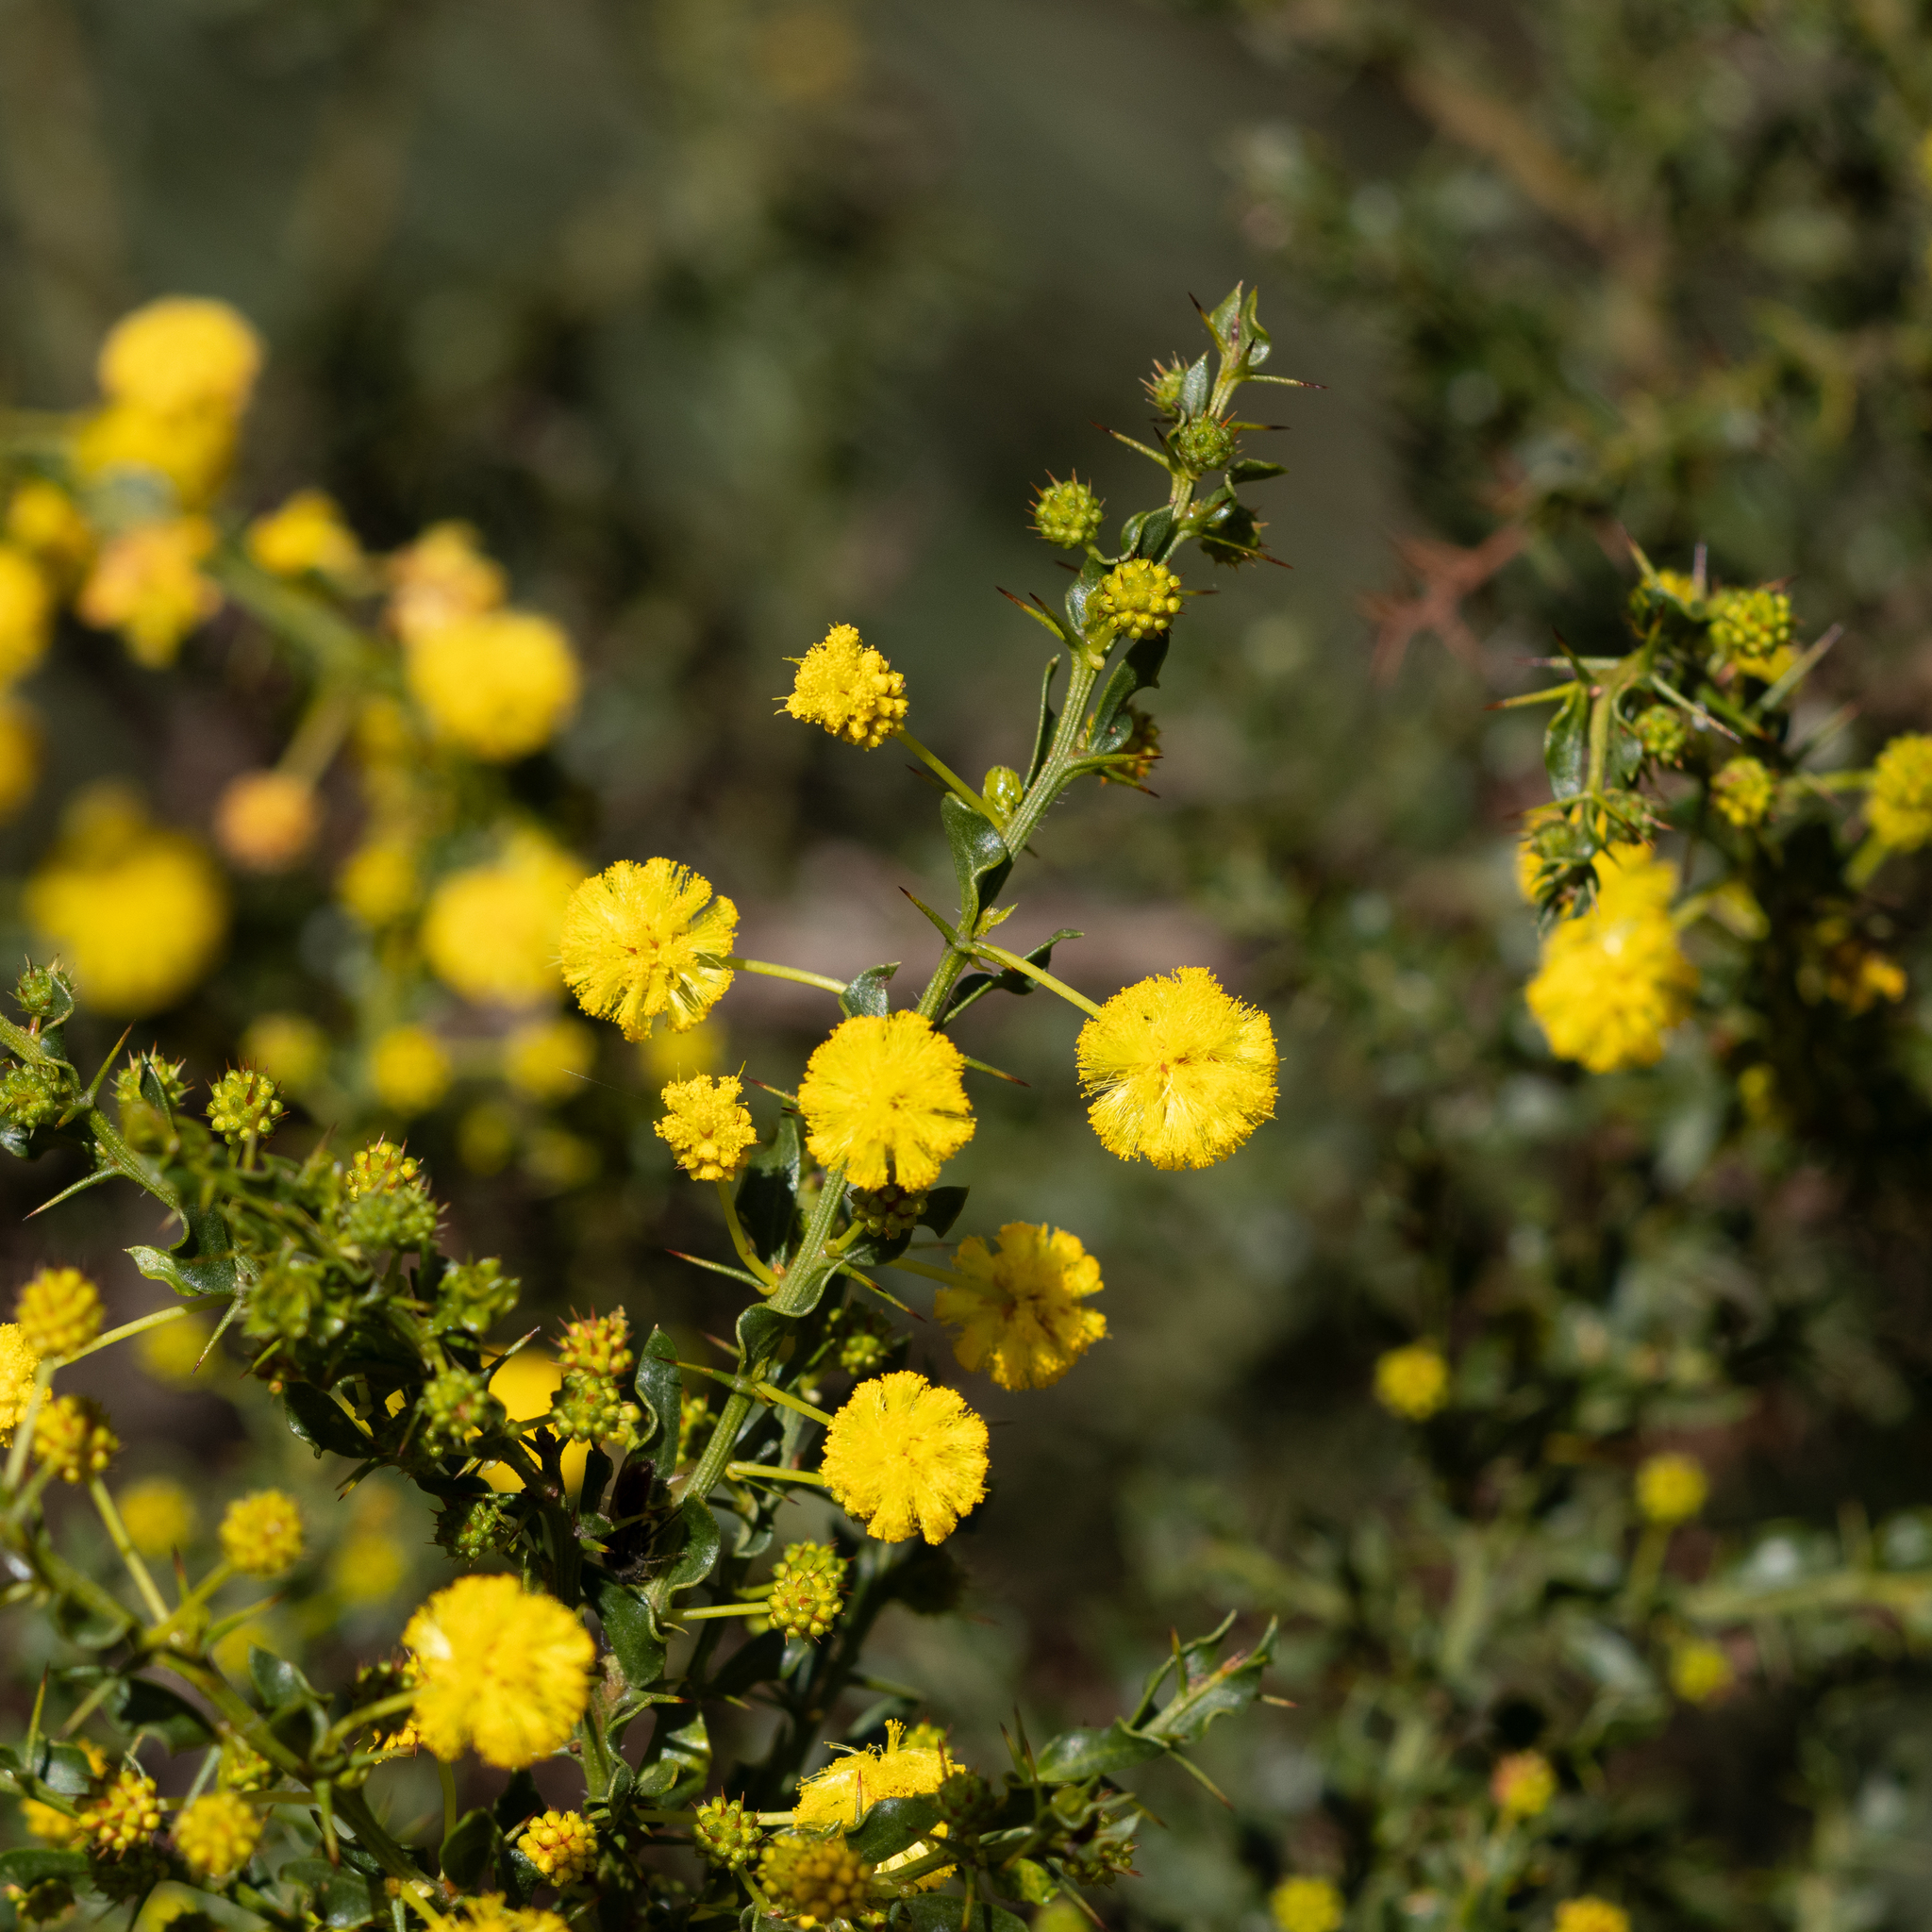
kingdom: Plantae
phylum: Tracheophyta
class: Magnoliopsida
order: Fabales
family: Fabaceae
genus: Acacia
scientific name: Acacia paradoxa
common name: Paradox acacia
